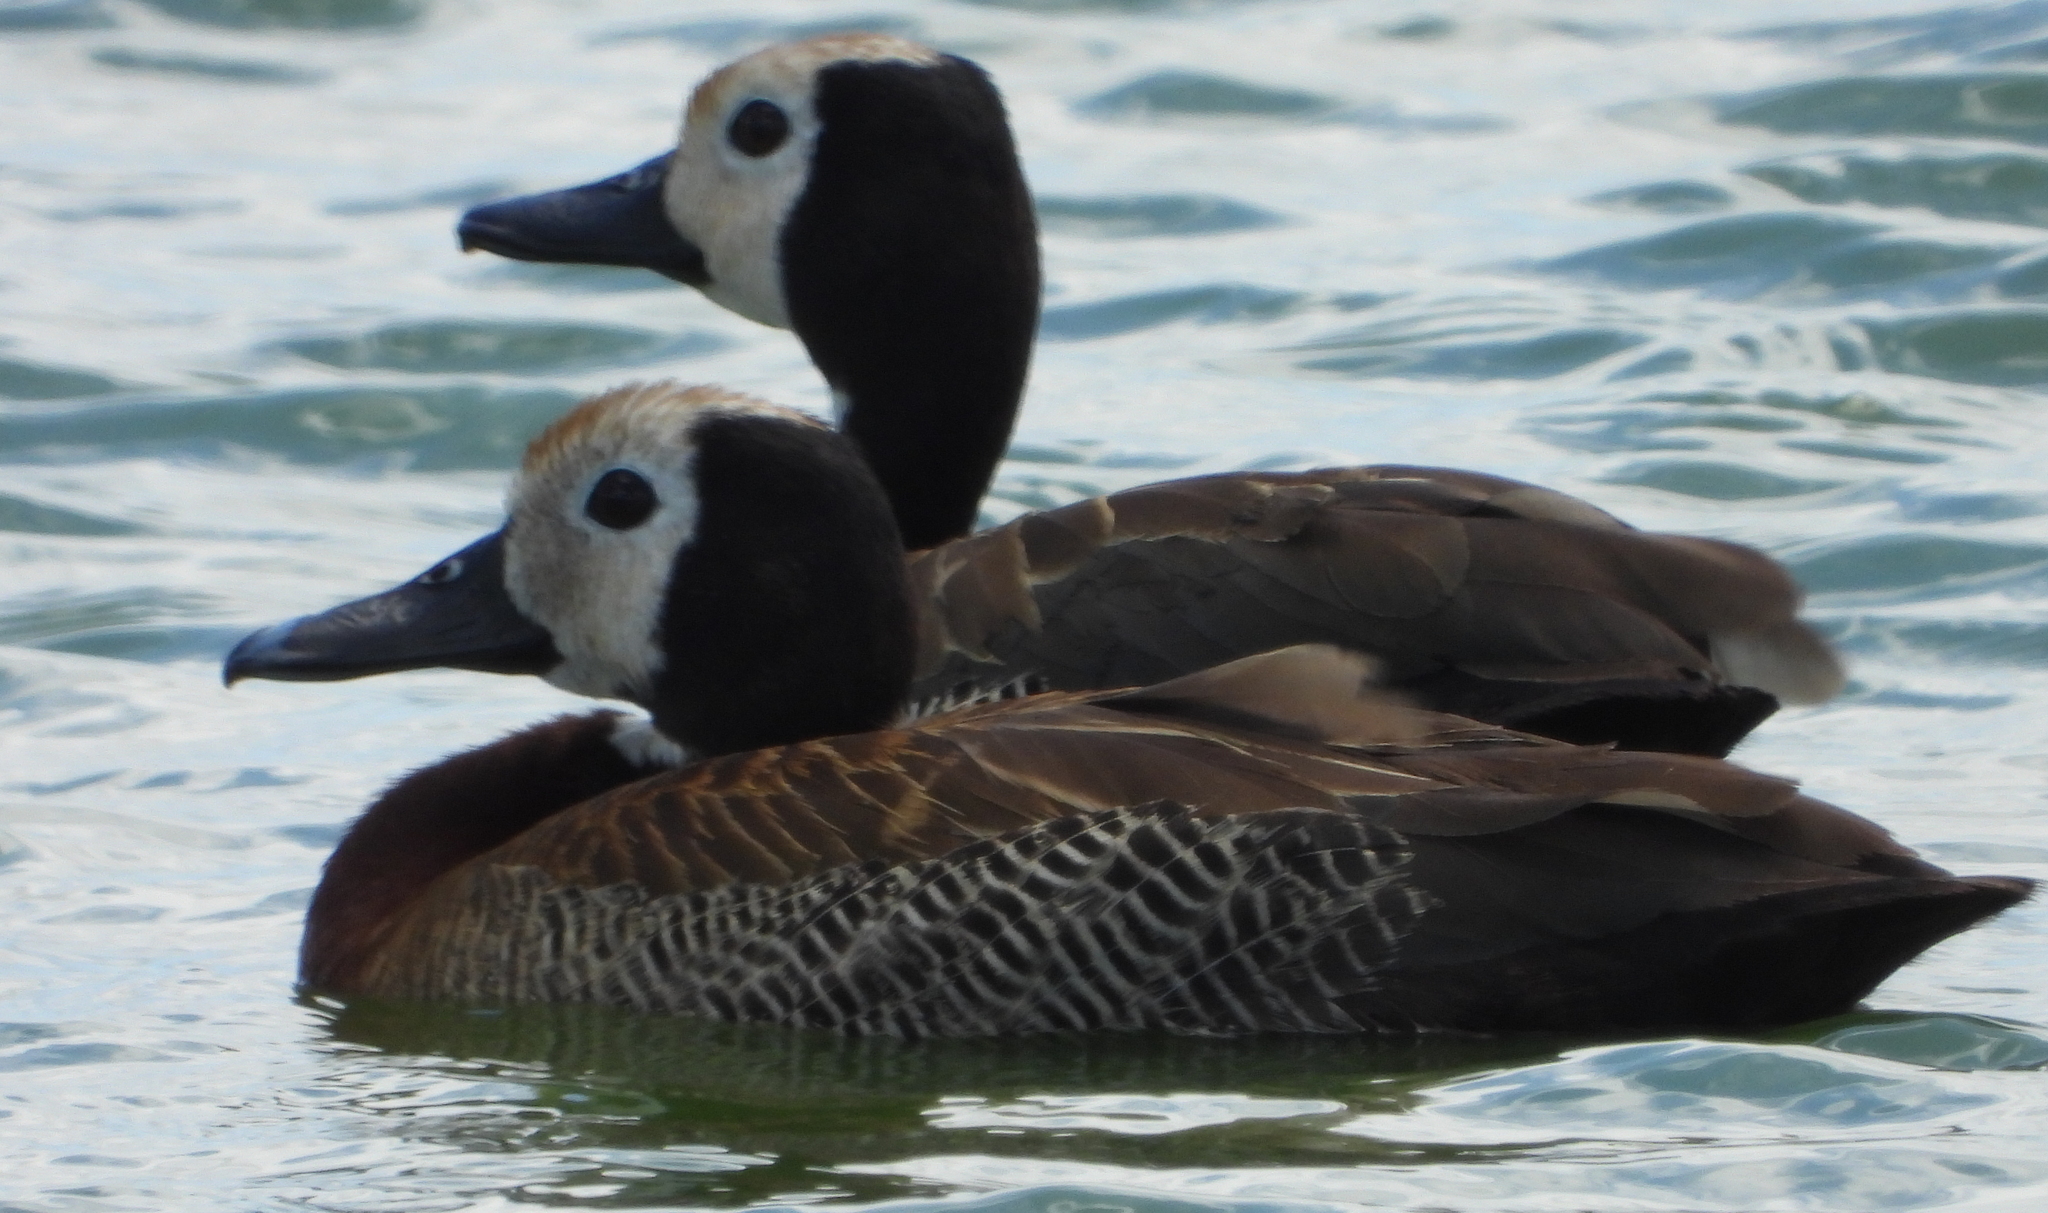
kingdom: Animalia
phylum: Chordata
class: Aves
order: Anseriformes
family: Anatidae
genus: Dendrocygna
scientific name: Dendrocygna viduata
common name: White-faced whistling duck
